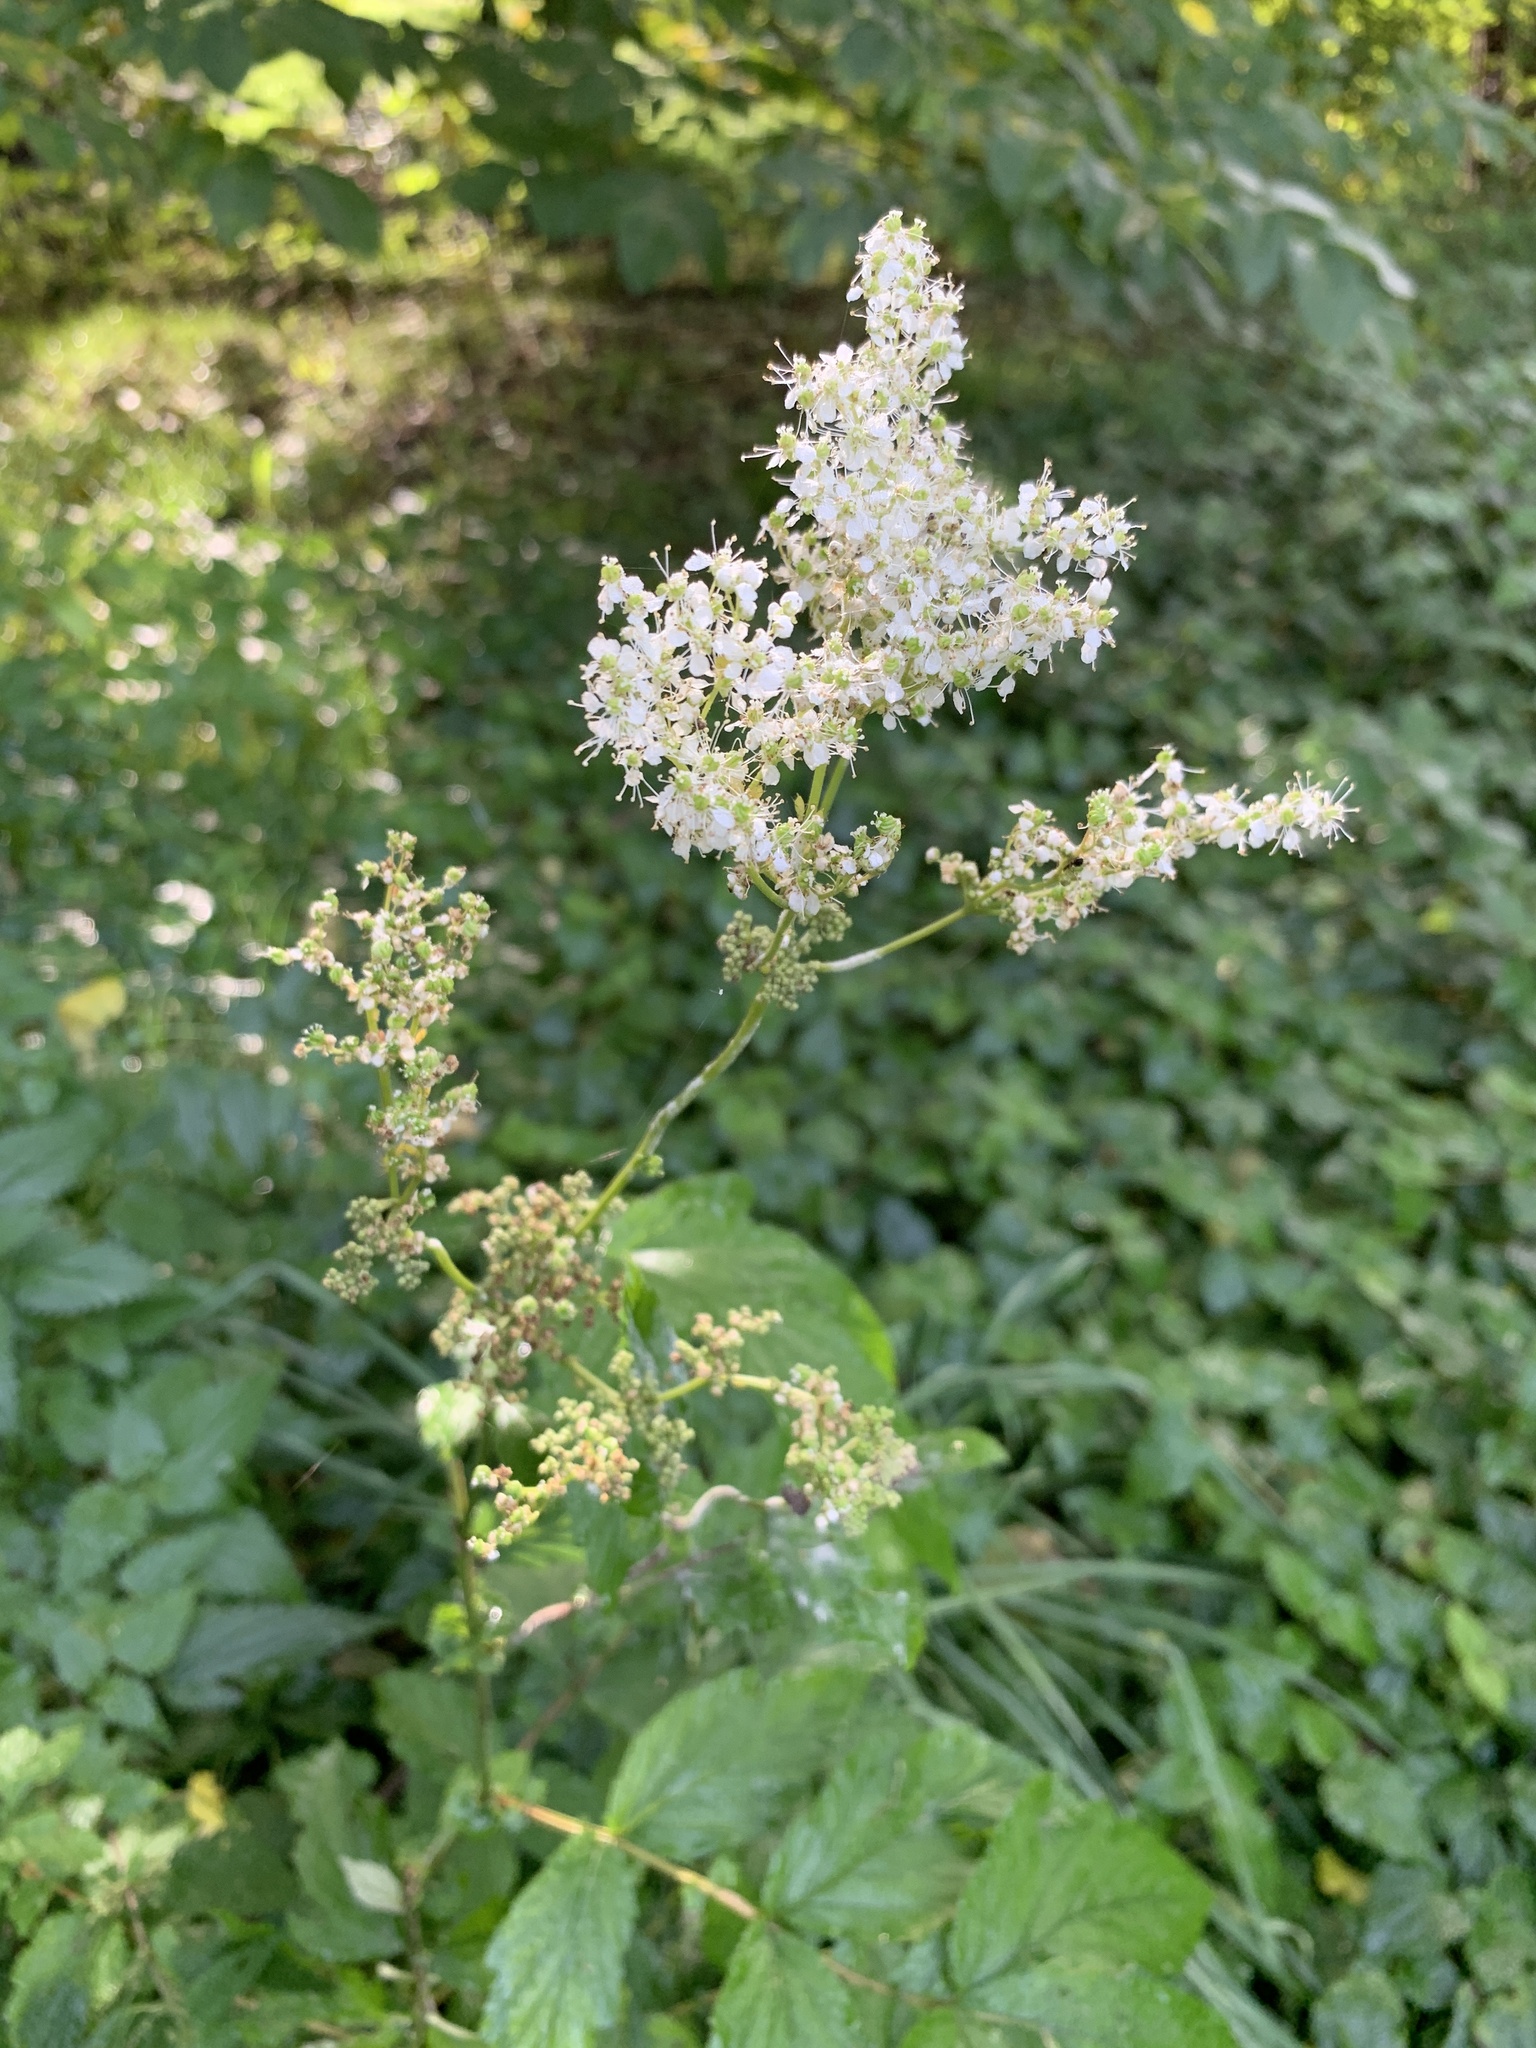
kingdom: Plantae
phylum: Tracheophyta
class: Magnoliopsida
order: Rosales
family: Rosaceae
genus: Filipendula
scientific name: Filipendula ulmaria
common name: Meadowsweet
